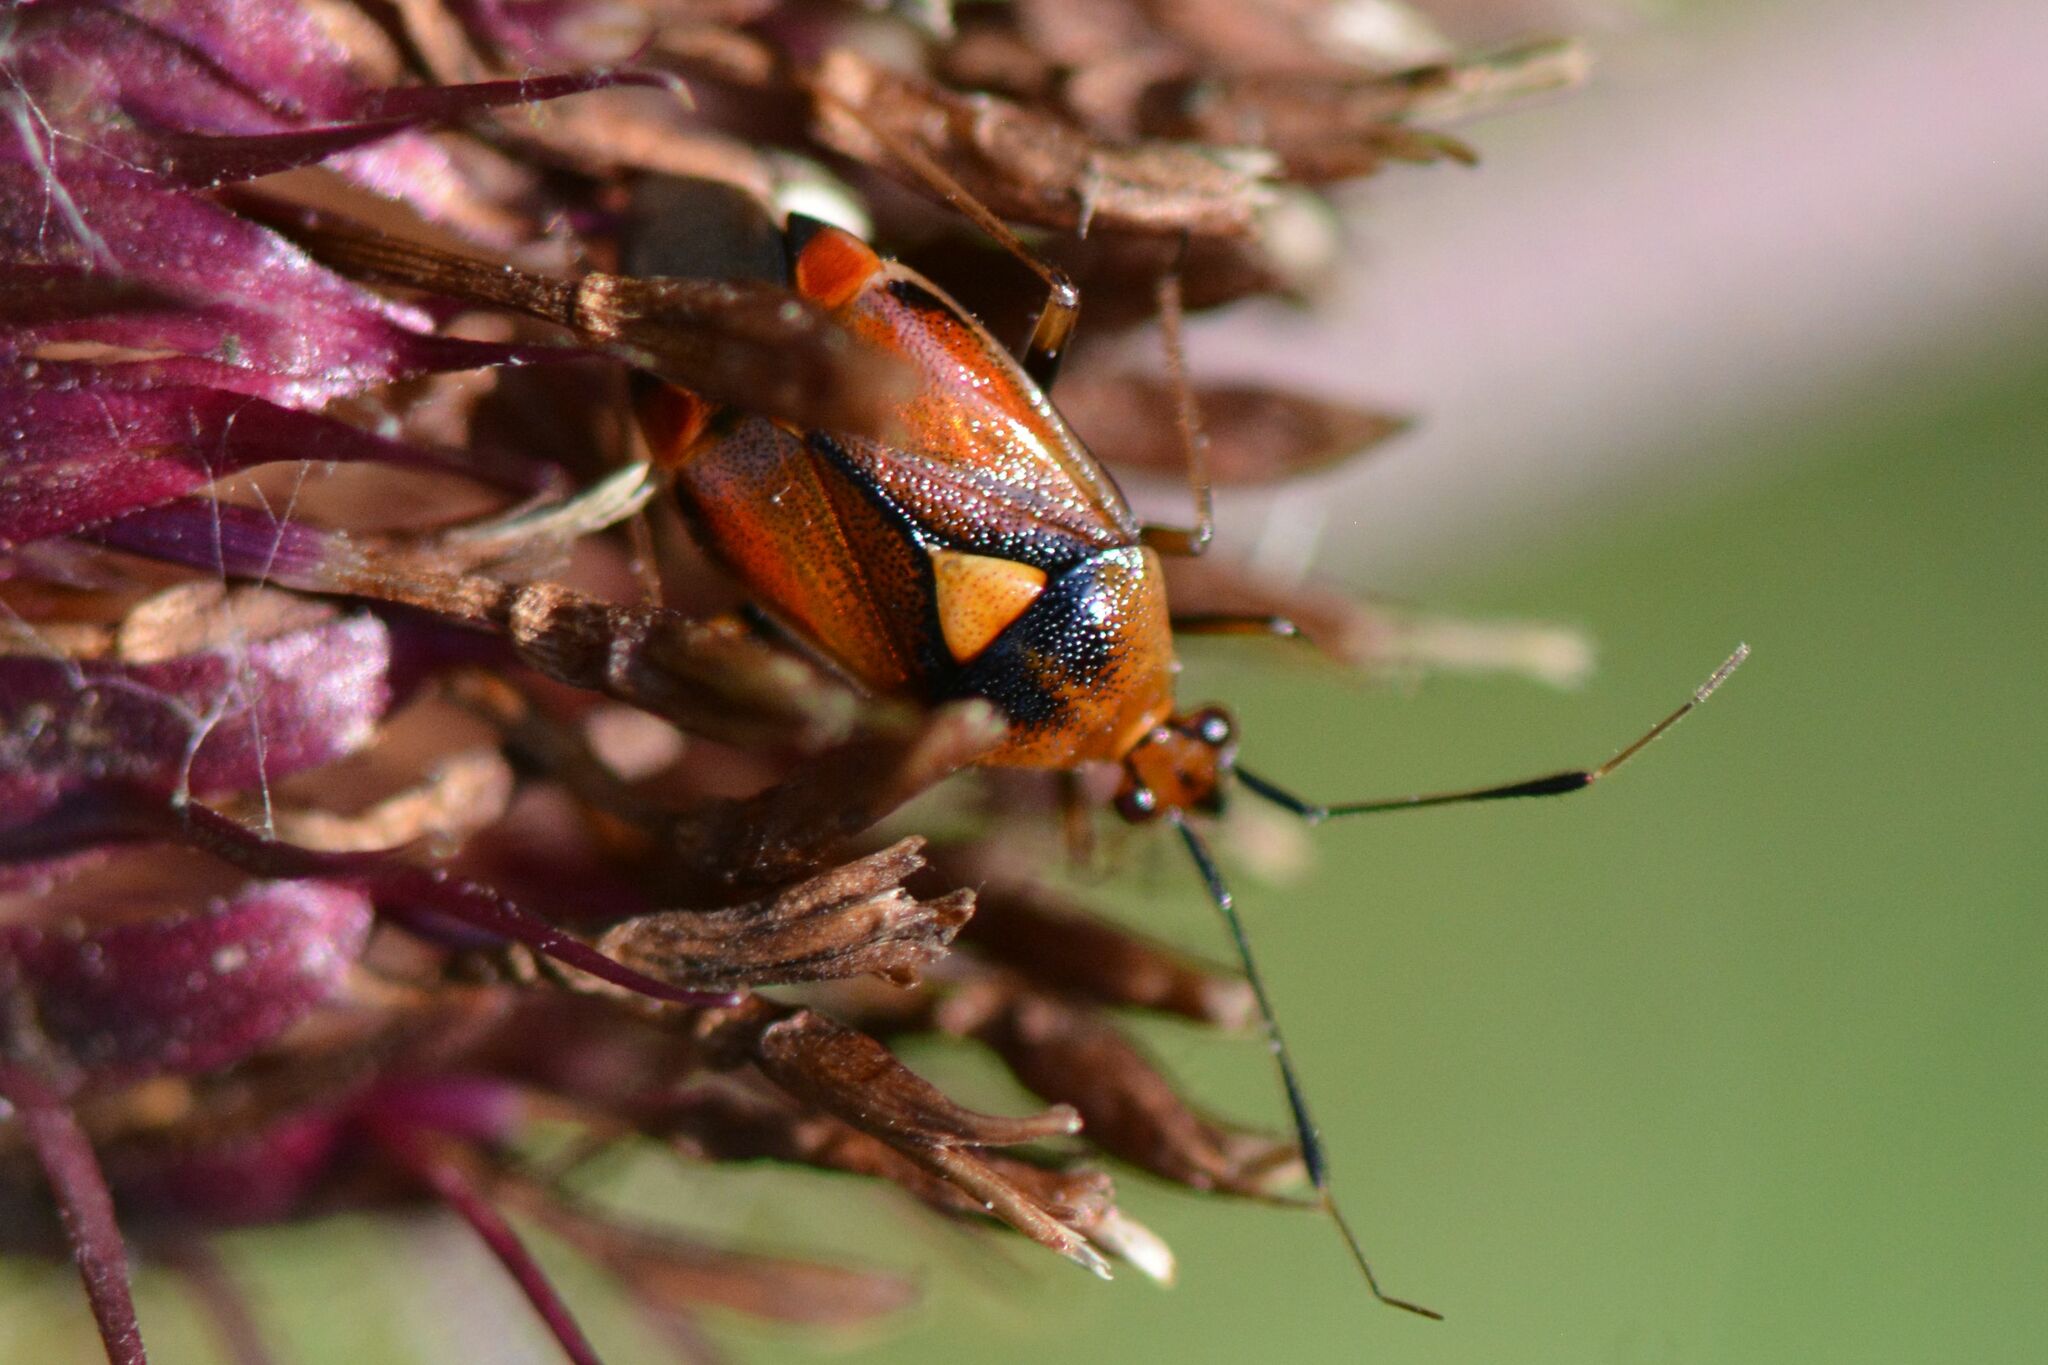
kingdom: Animalia
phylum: Arthropoda
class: Insecta
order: Hemiptera
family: Miridae
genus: Deraeocoris
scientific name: Deraeocoris ruber
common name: Plant bug
